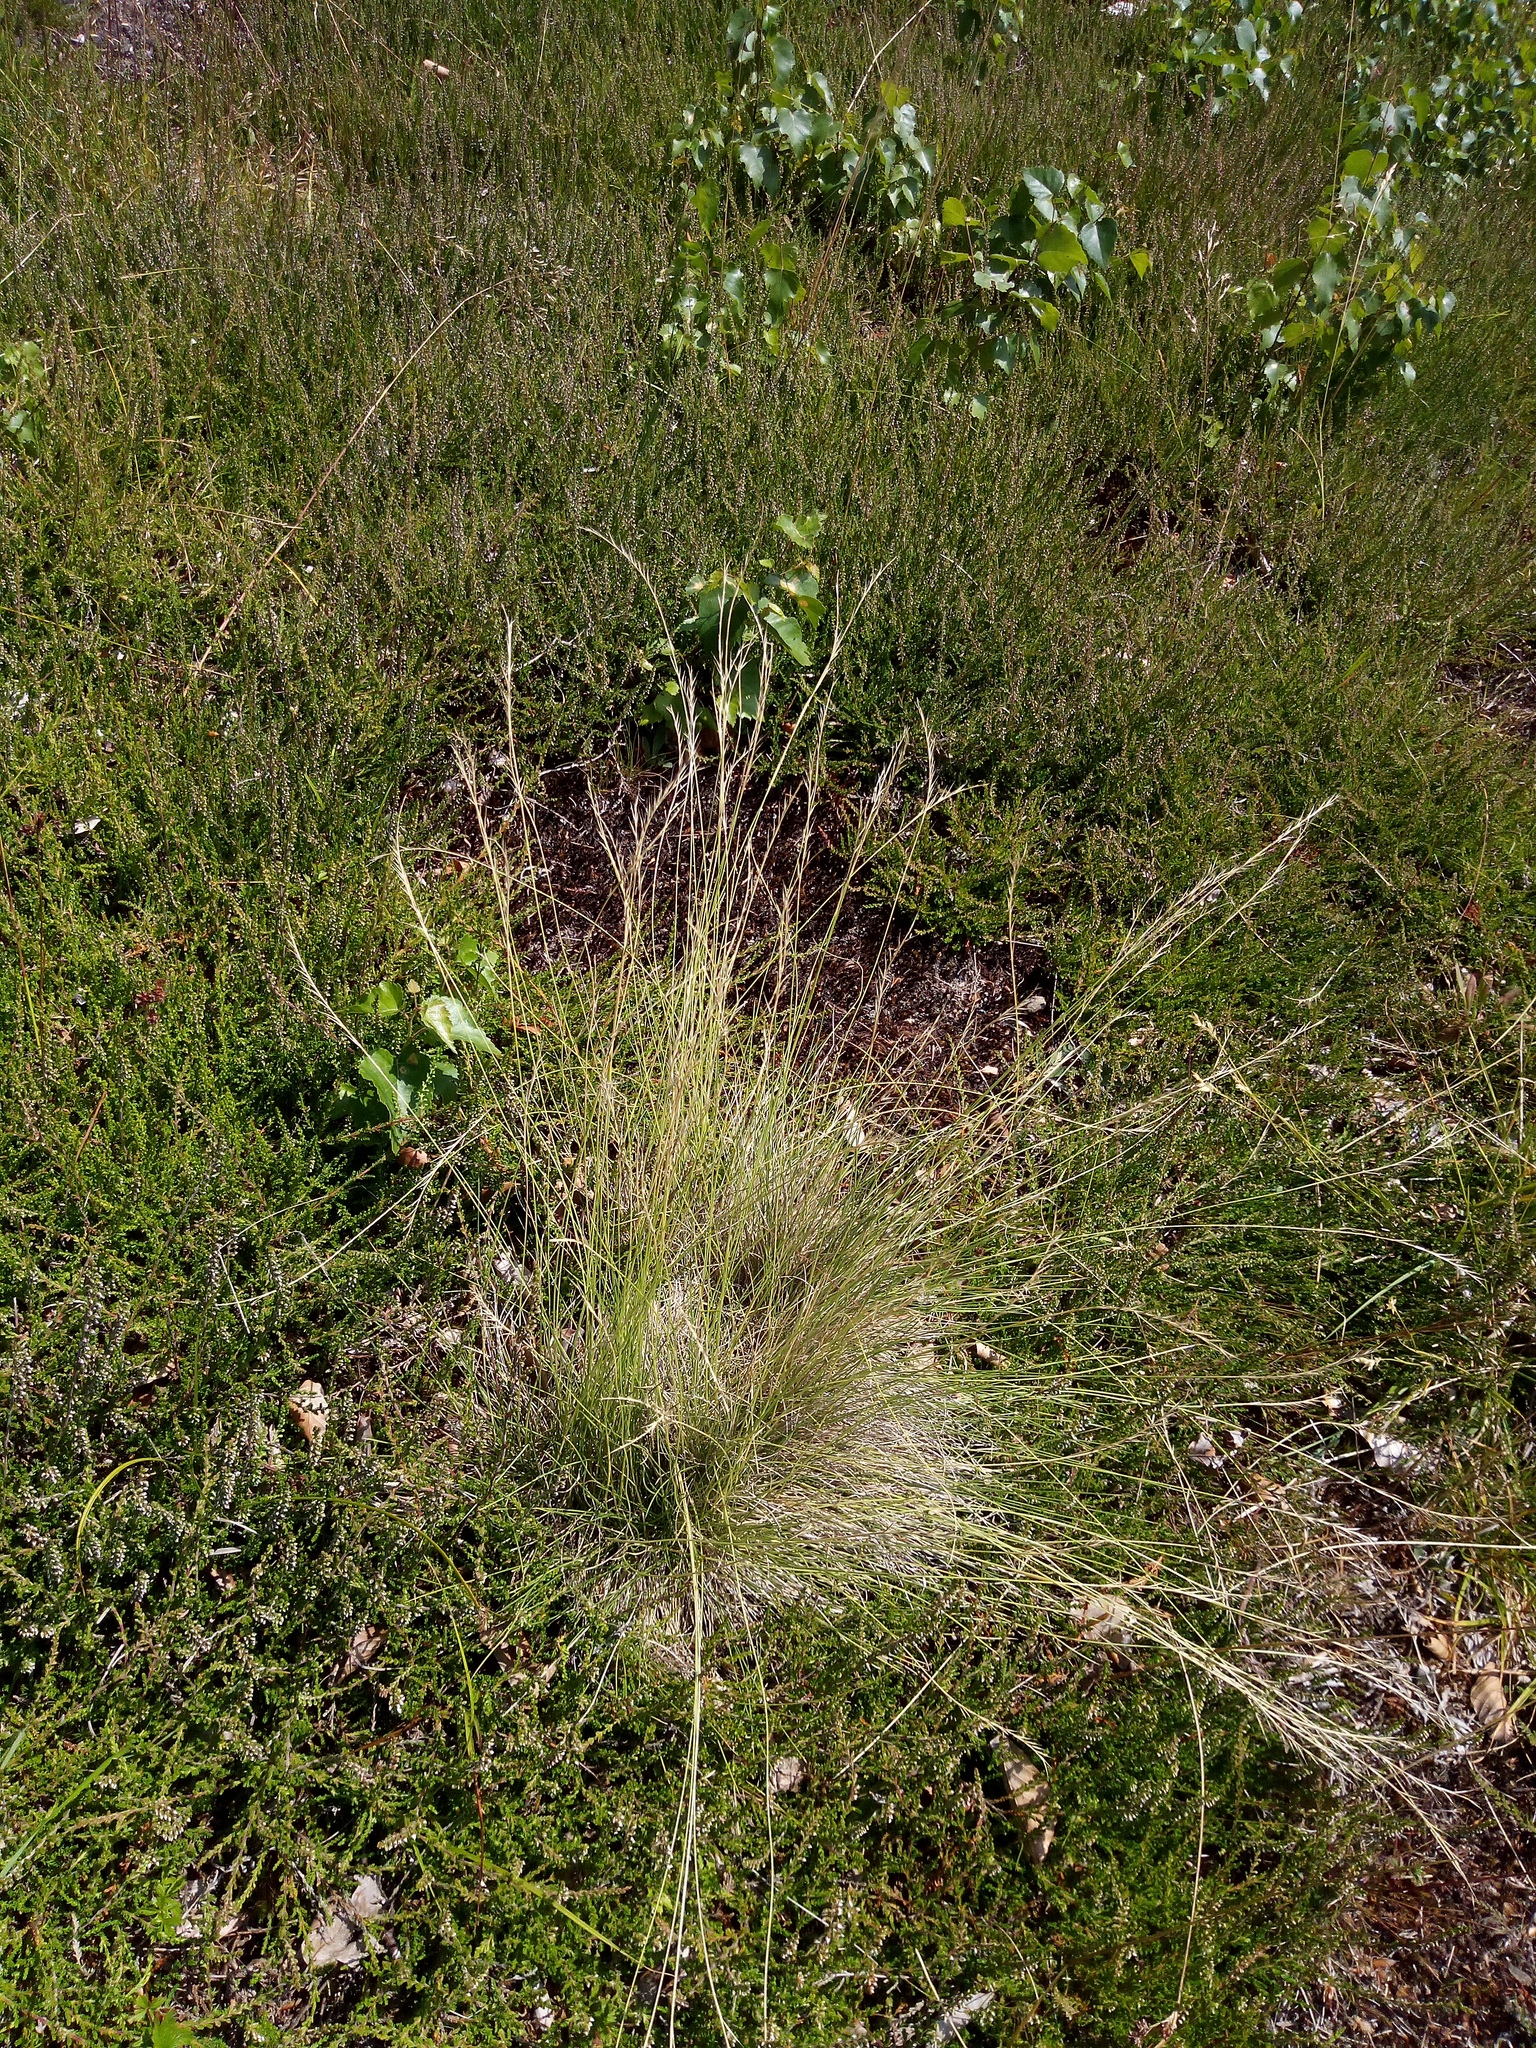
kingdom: Plantae
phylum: Tracheophyta
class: Liliopsida
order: Poales
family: Poaceae
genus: Nardus
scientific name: Nardus stricta
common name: Mat-grass
